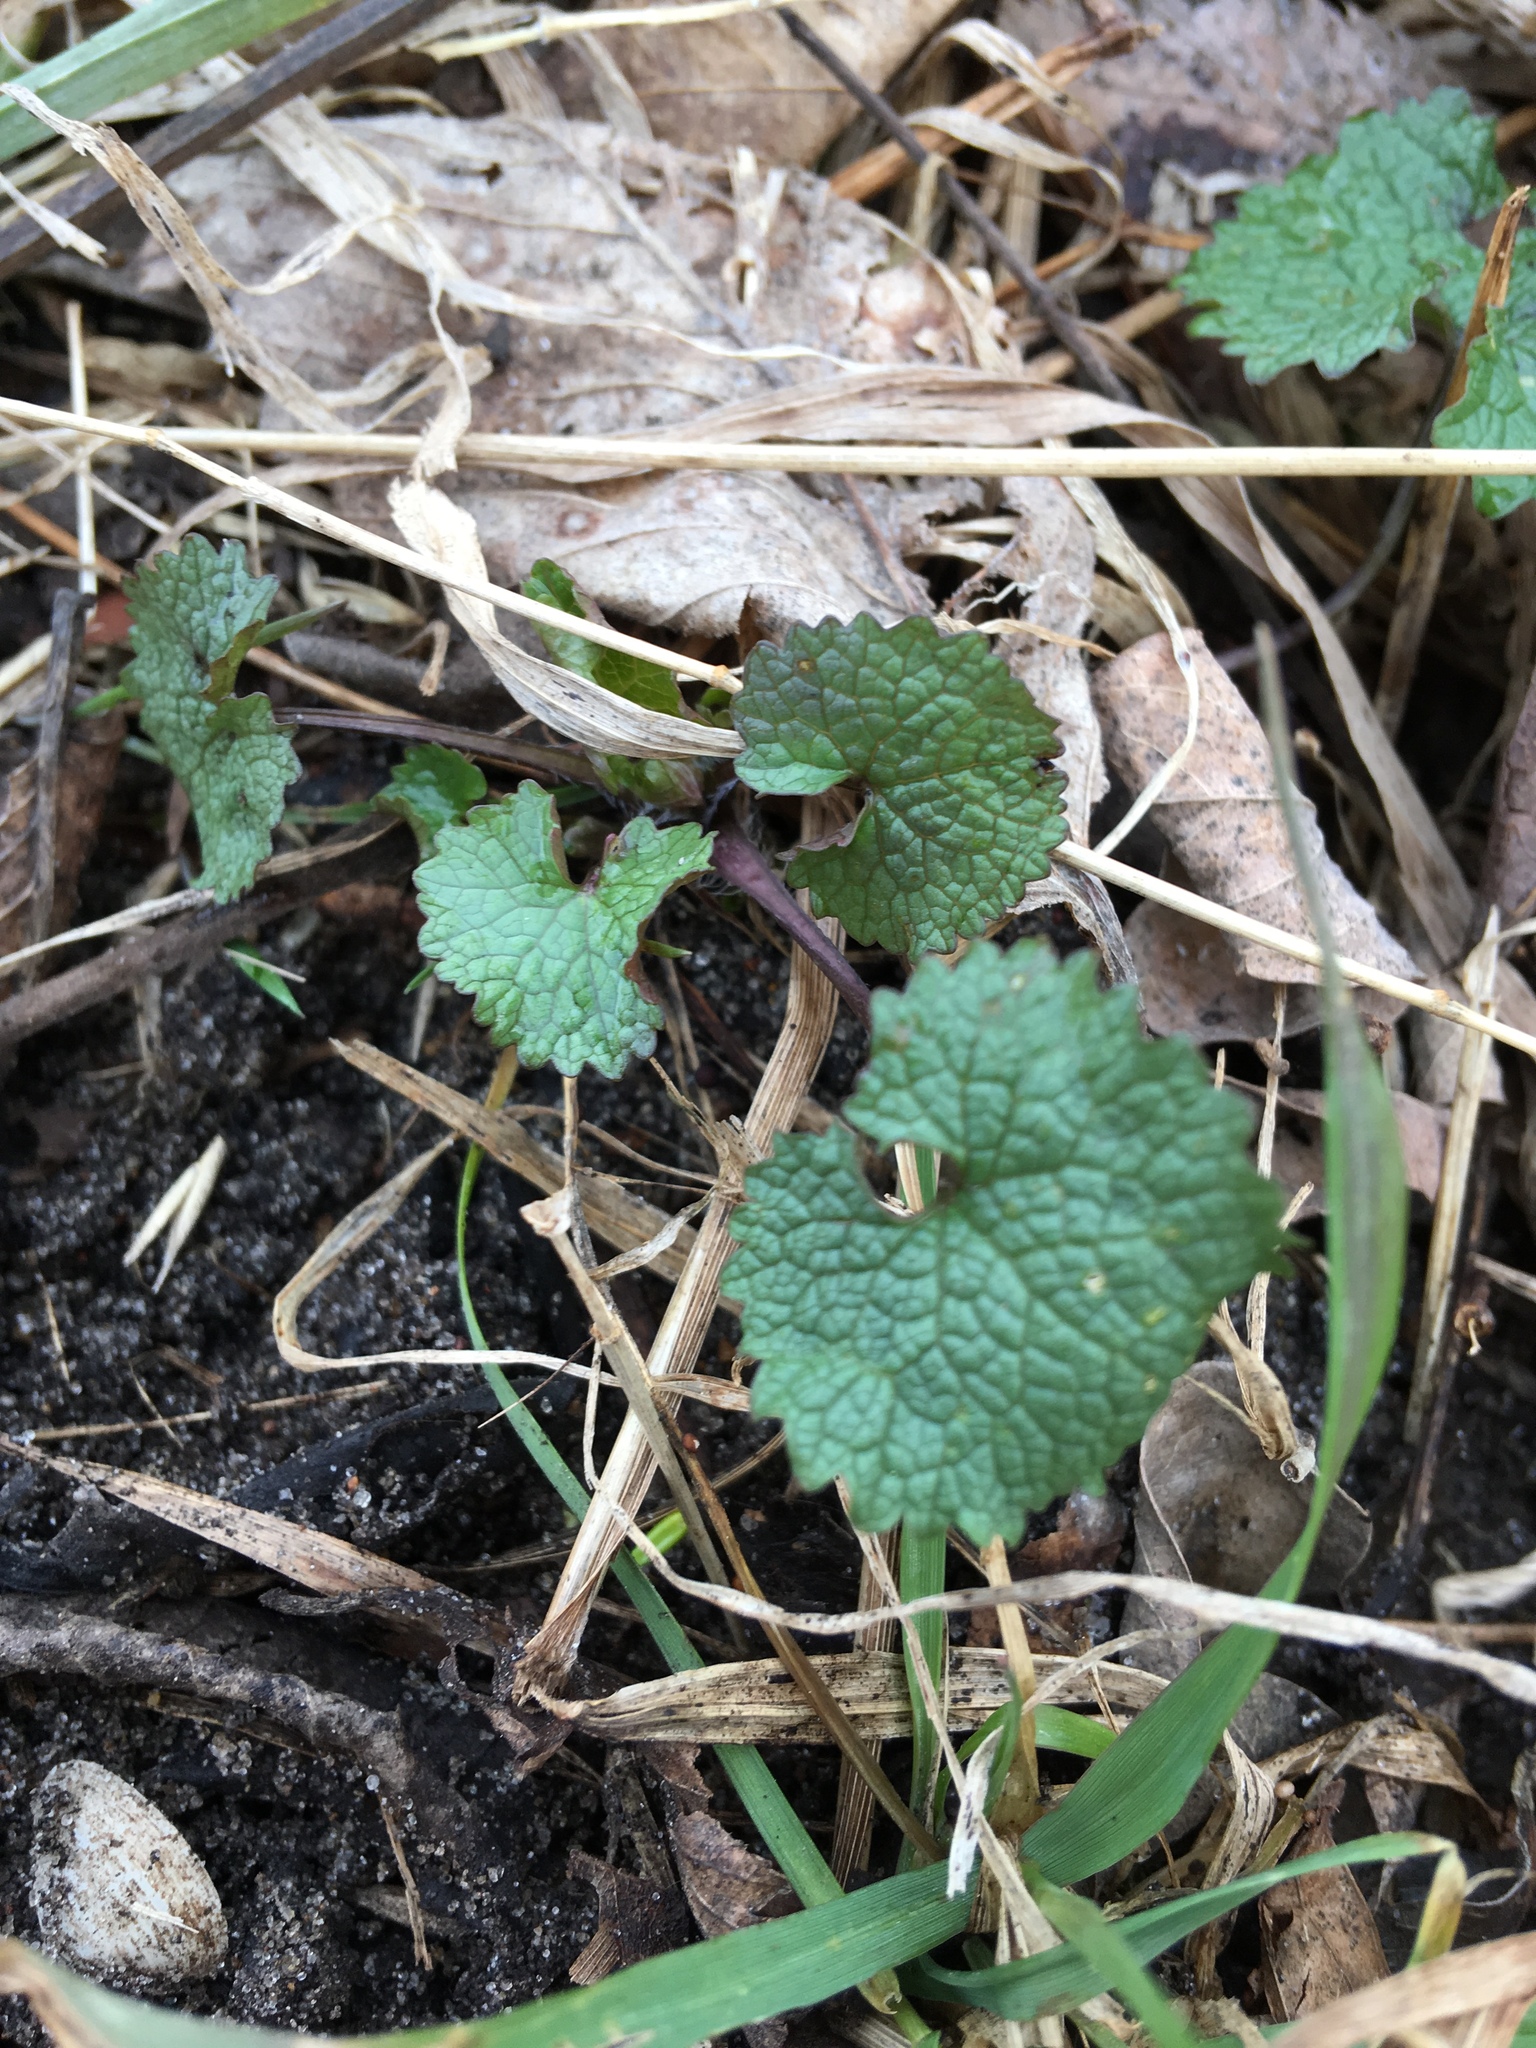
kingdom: Plantae
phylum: Tracheophyta
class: Magnoliopsida
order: Brassicales
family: Brassicaceae
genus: Alliaria
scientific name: Alliaria petiolata
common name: Garlic mustard
